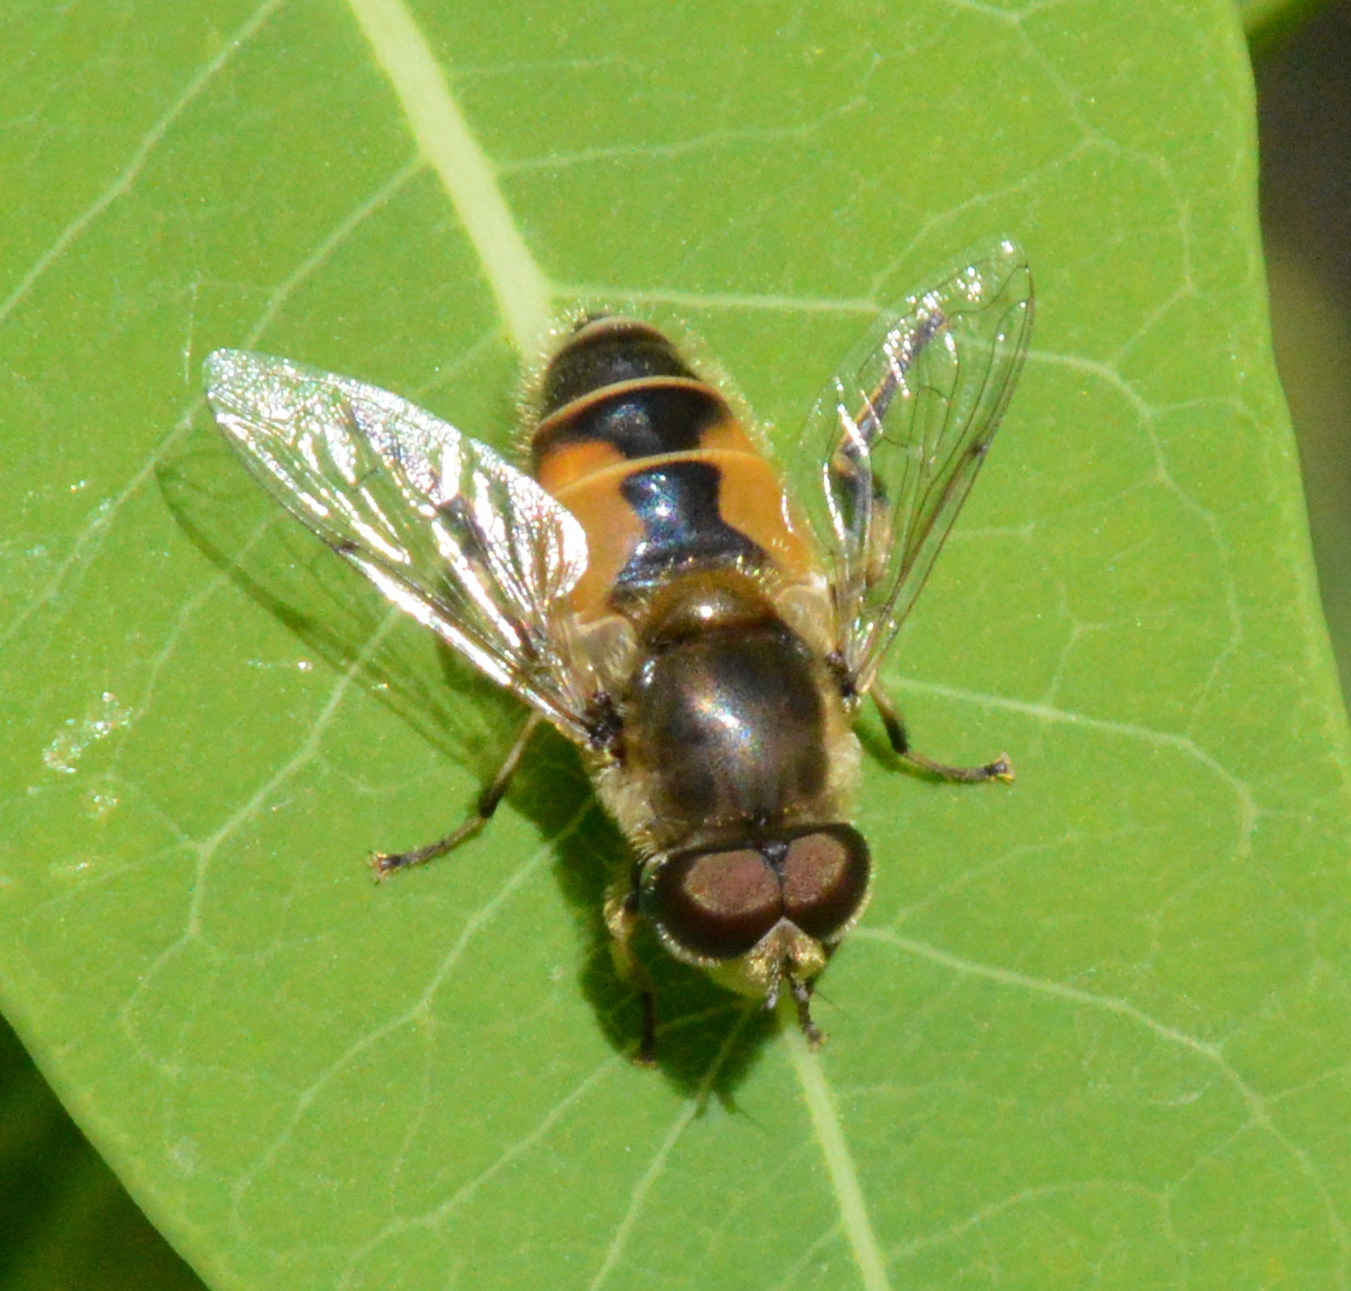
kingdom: Animalia
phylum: Arthropoda
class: Insecta
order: Diptera
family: Syrphidae
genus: Eristalis
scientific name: Eristalis arbustorum
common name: Hover fly
